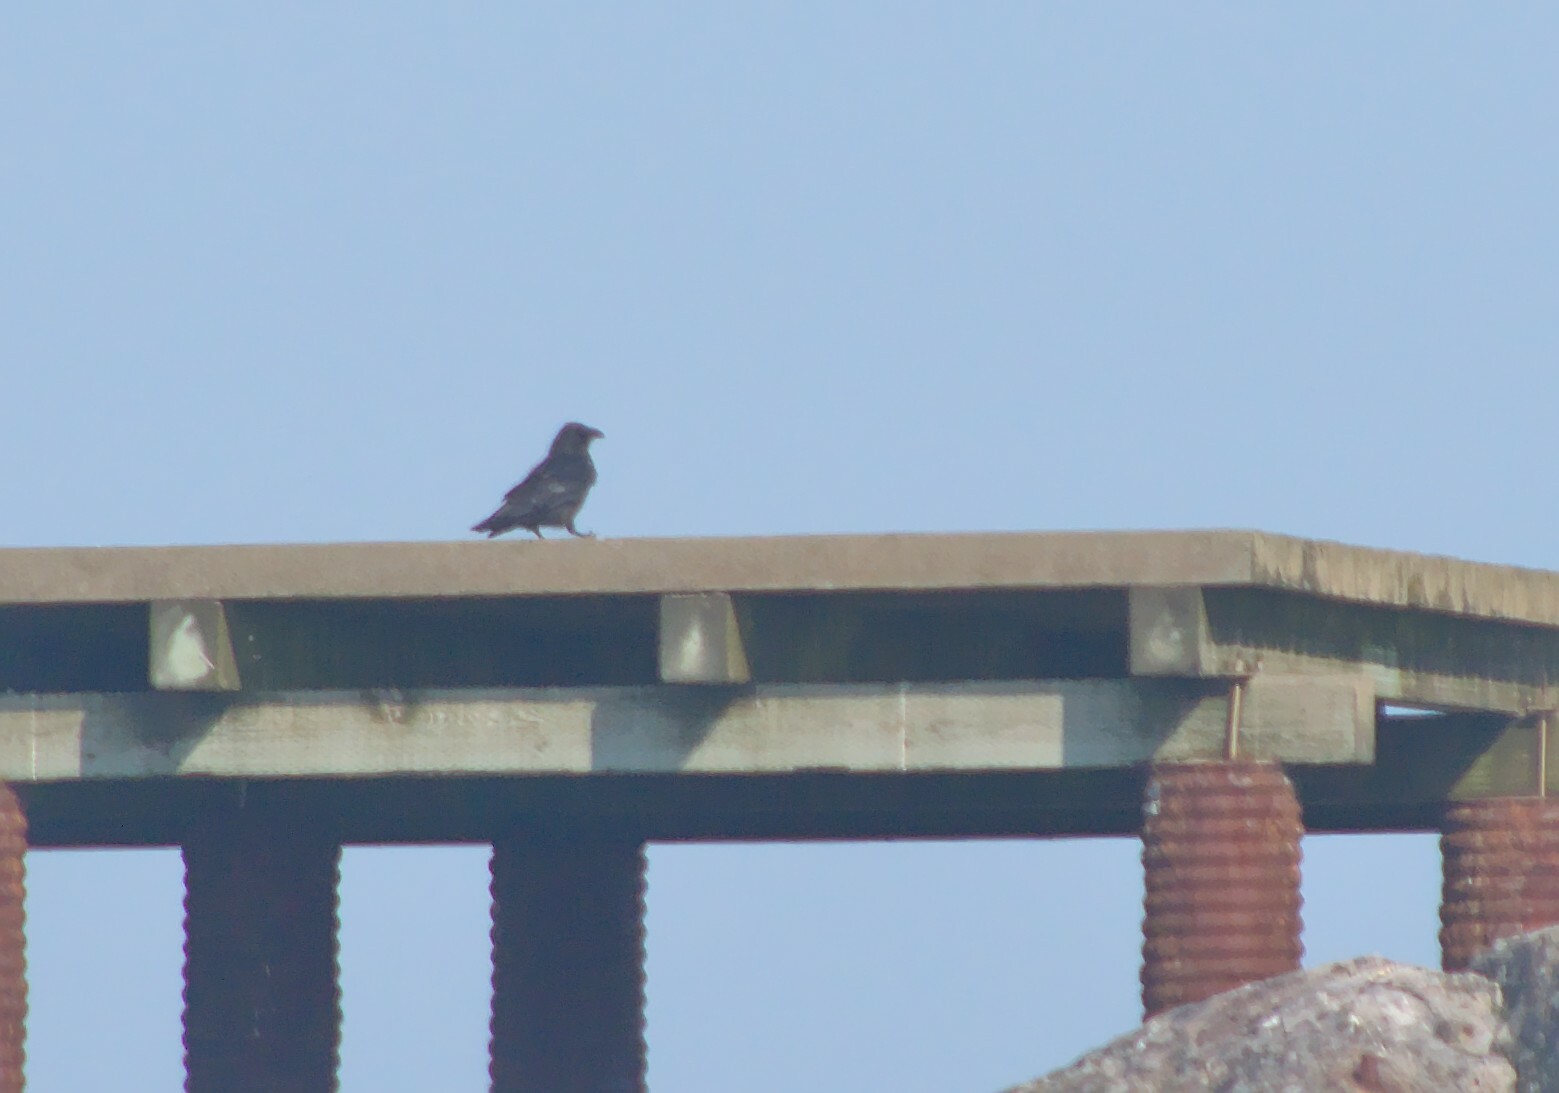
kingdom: Animalia
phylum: Chordata
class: Aves
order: Passeriformes
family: Corvidae
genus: Corvus
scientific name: Corvus corax
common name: Common raven
